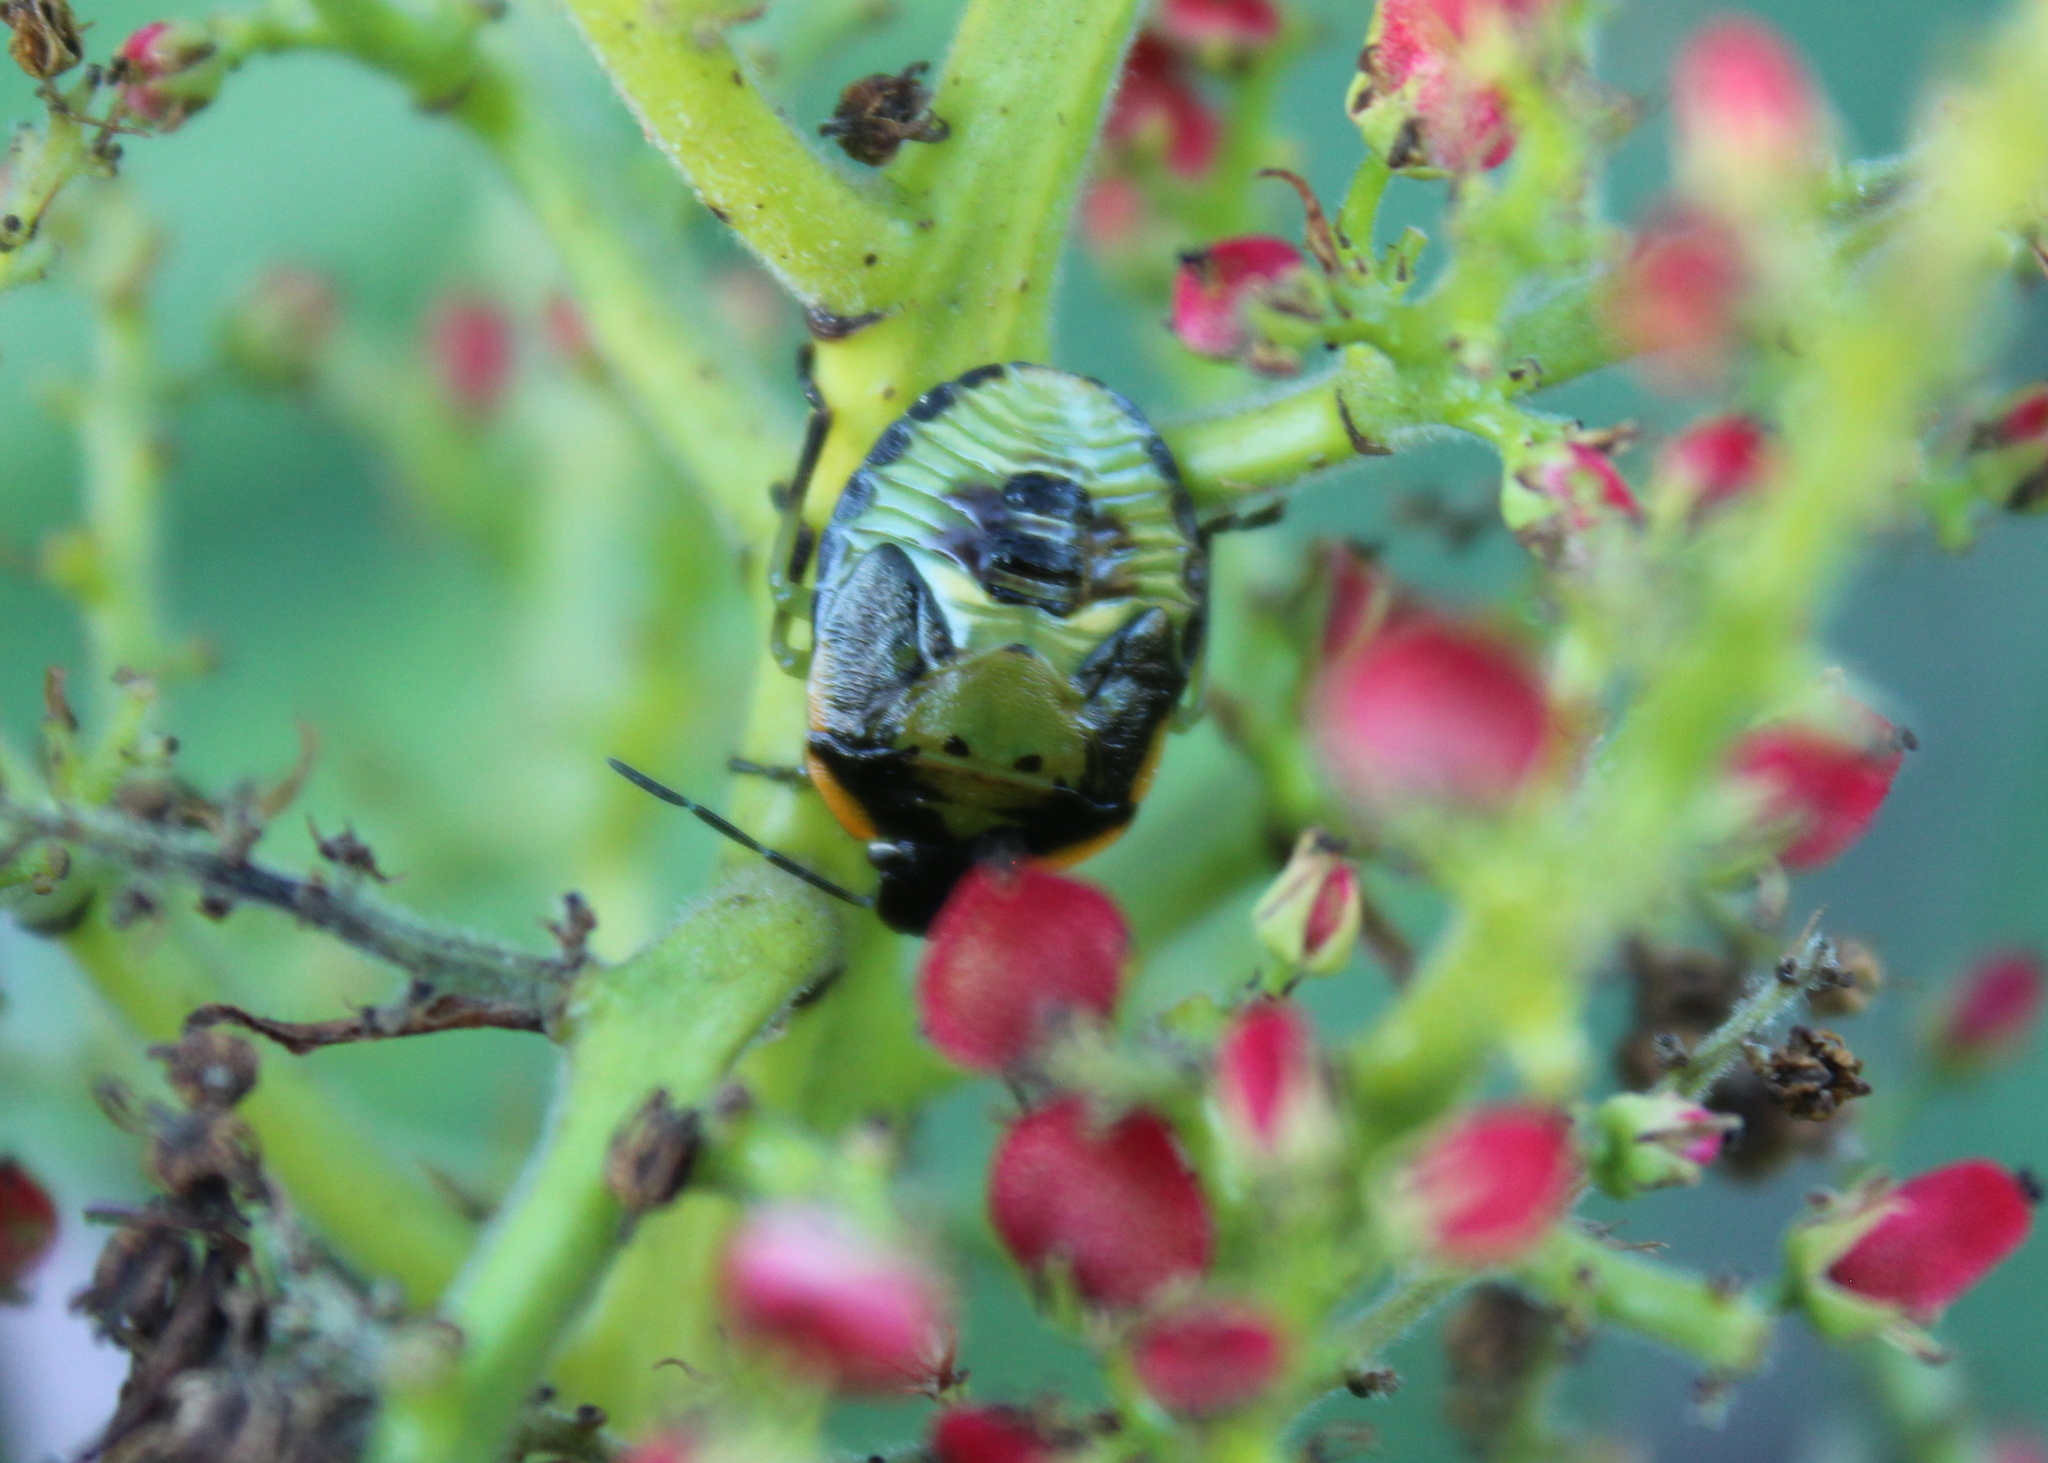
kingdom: Animalia
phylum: Arthropoda
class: Insecta
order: Hemiptera
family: Pentatomidae
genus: Chinavia
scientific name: Chinavia hilaris
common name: Green stink bug
